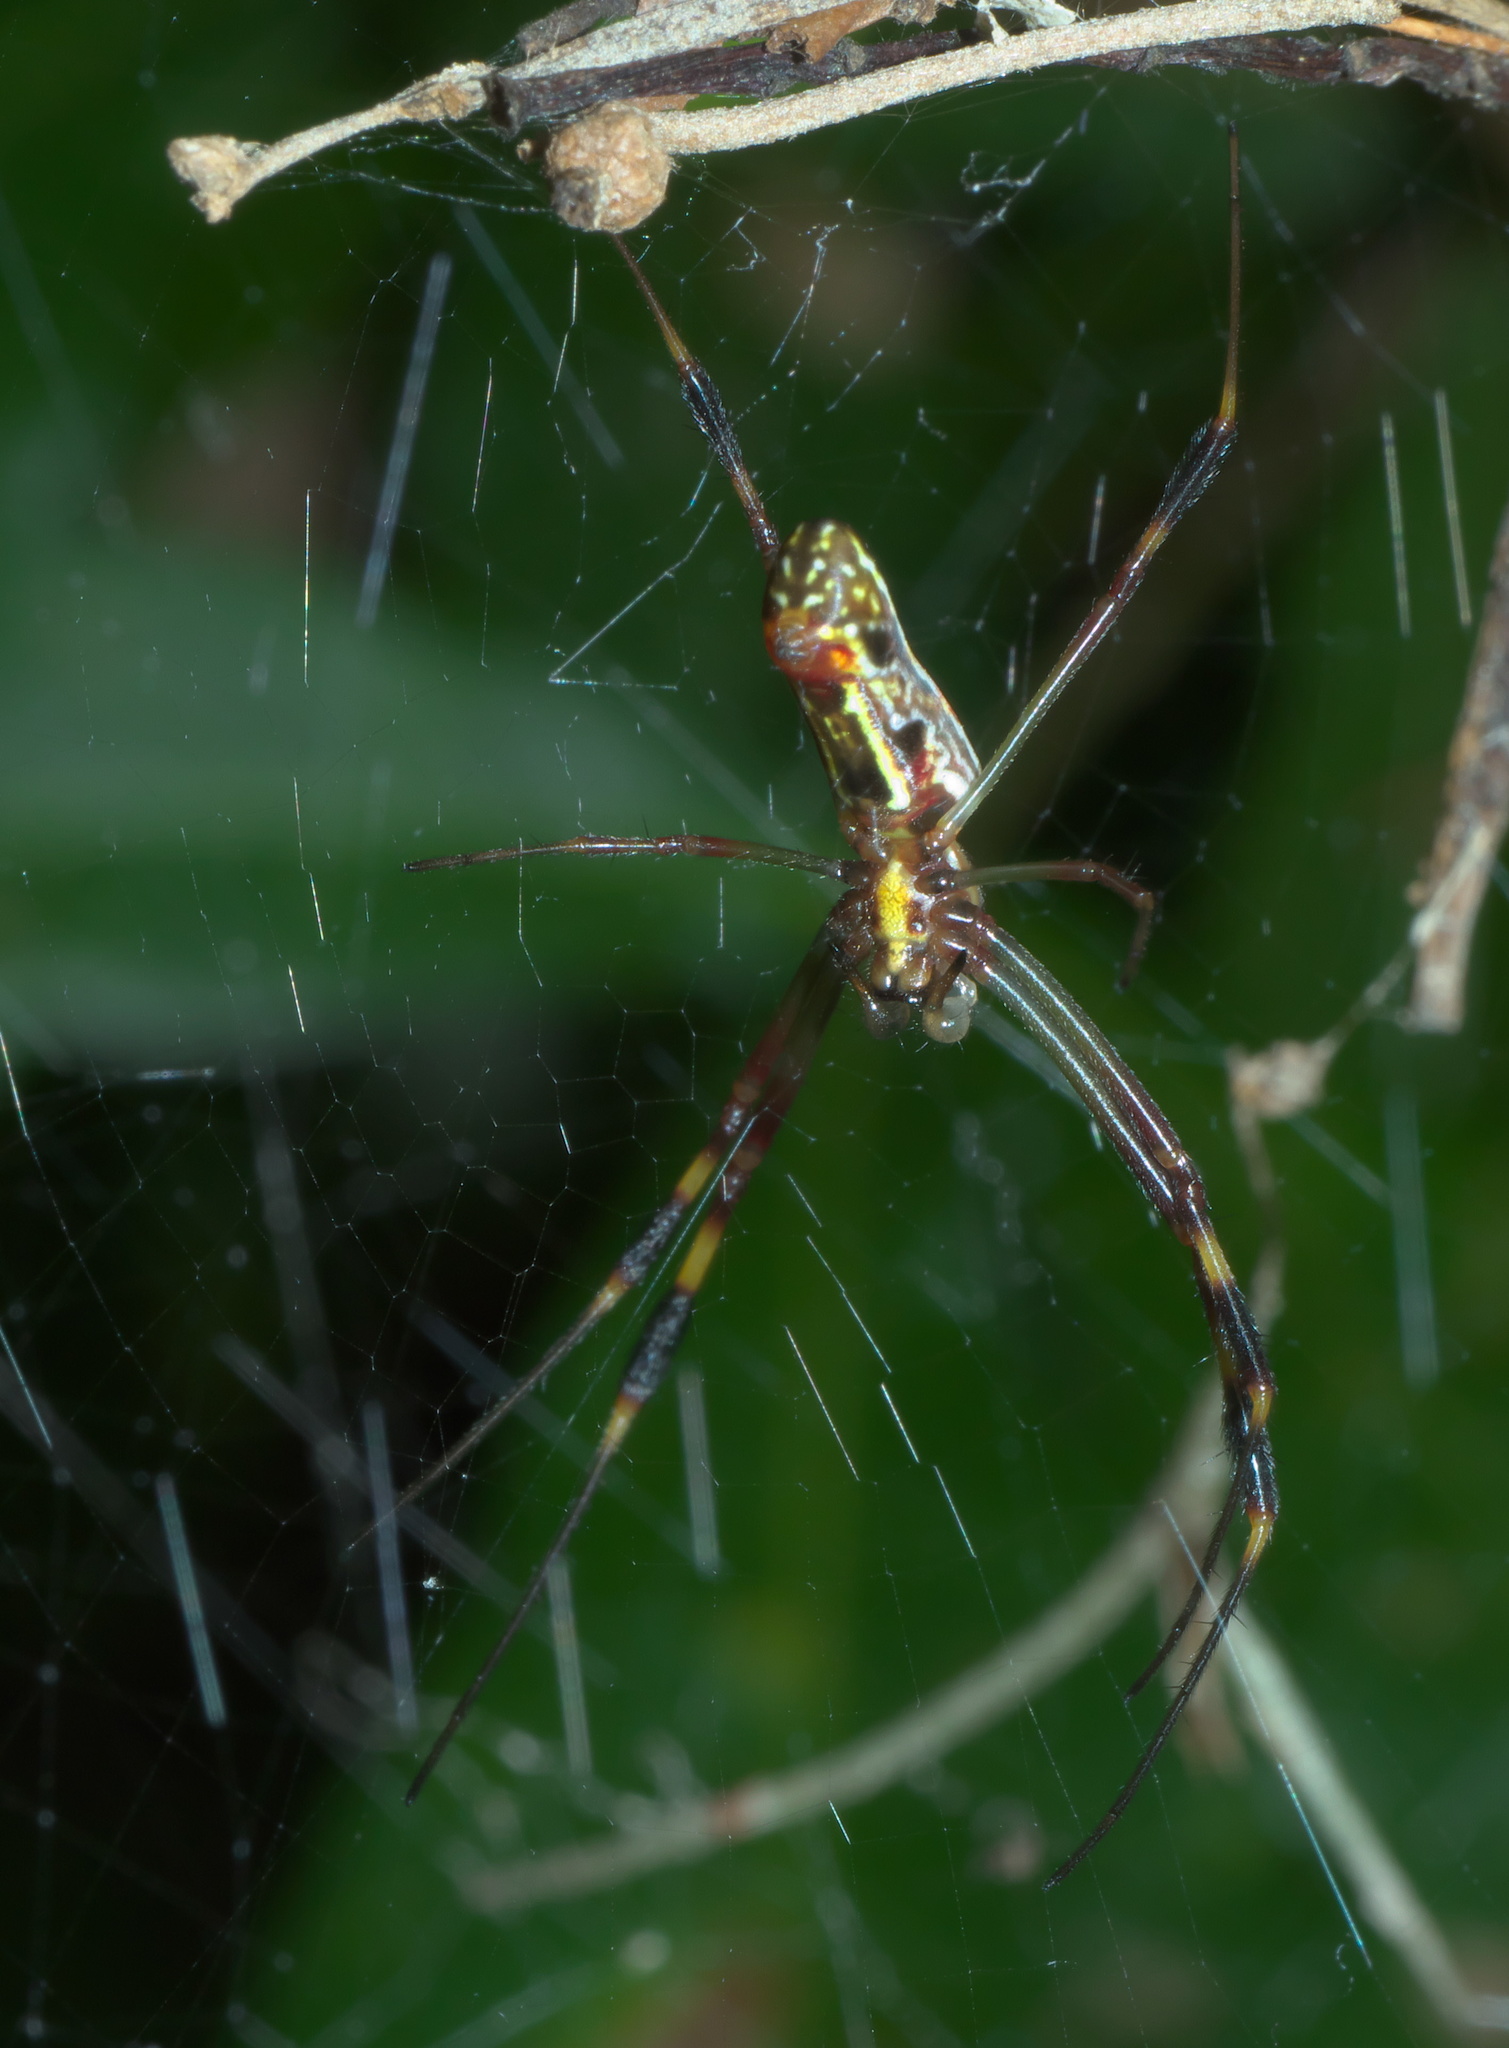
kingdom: Animalia
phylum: Arthropoda
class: Arachnida
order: Araneae
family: Araneidae
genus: Trichonephila
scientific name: Trichonephila clavipes
